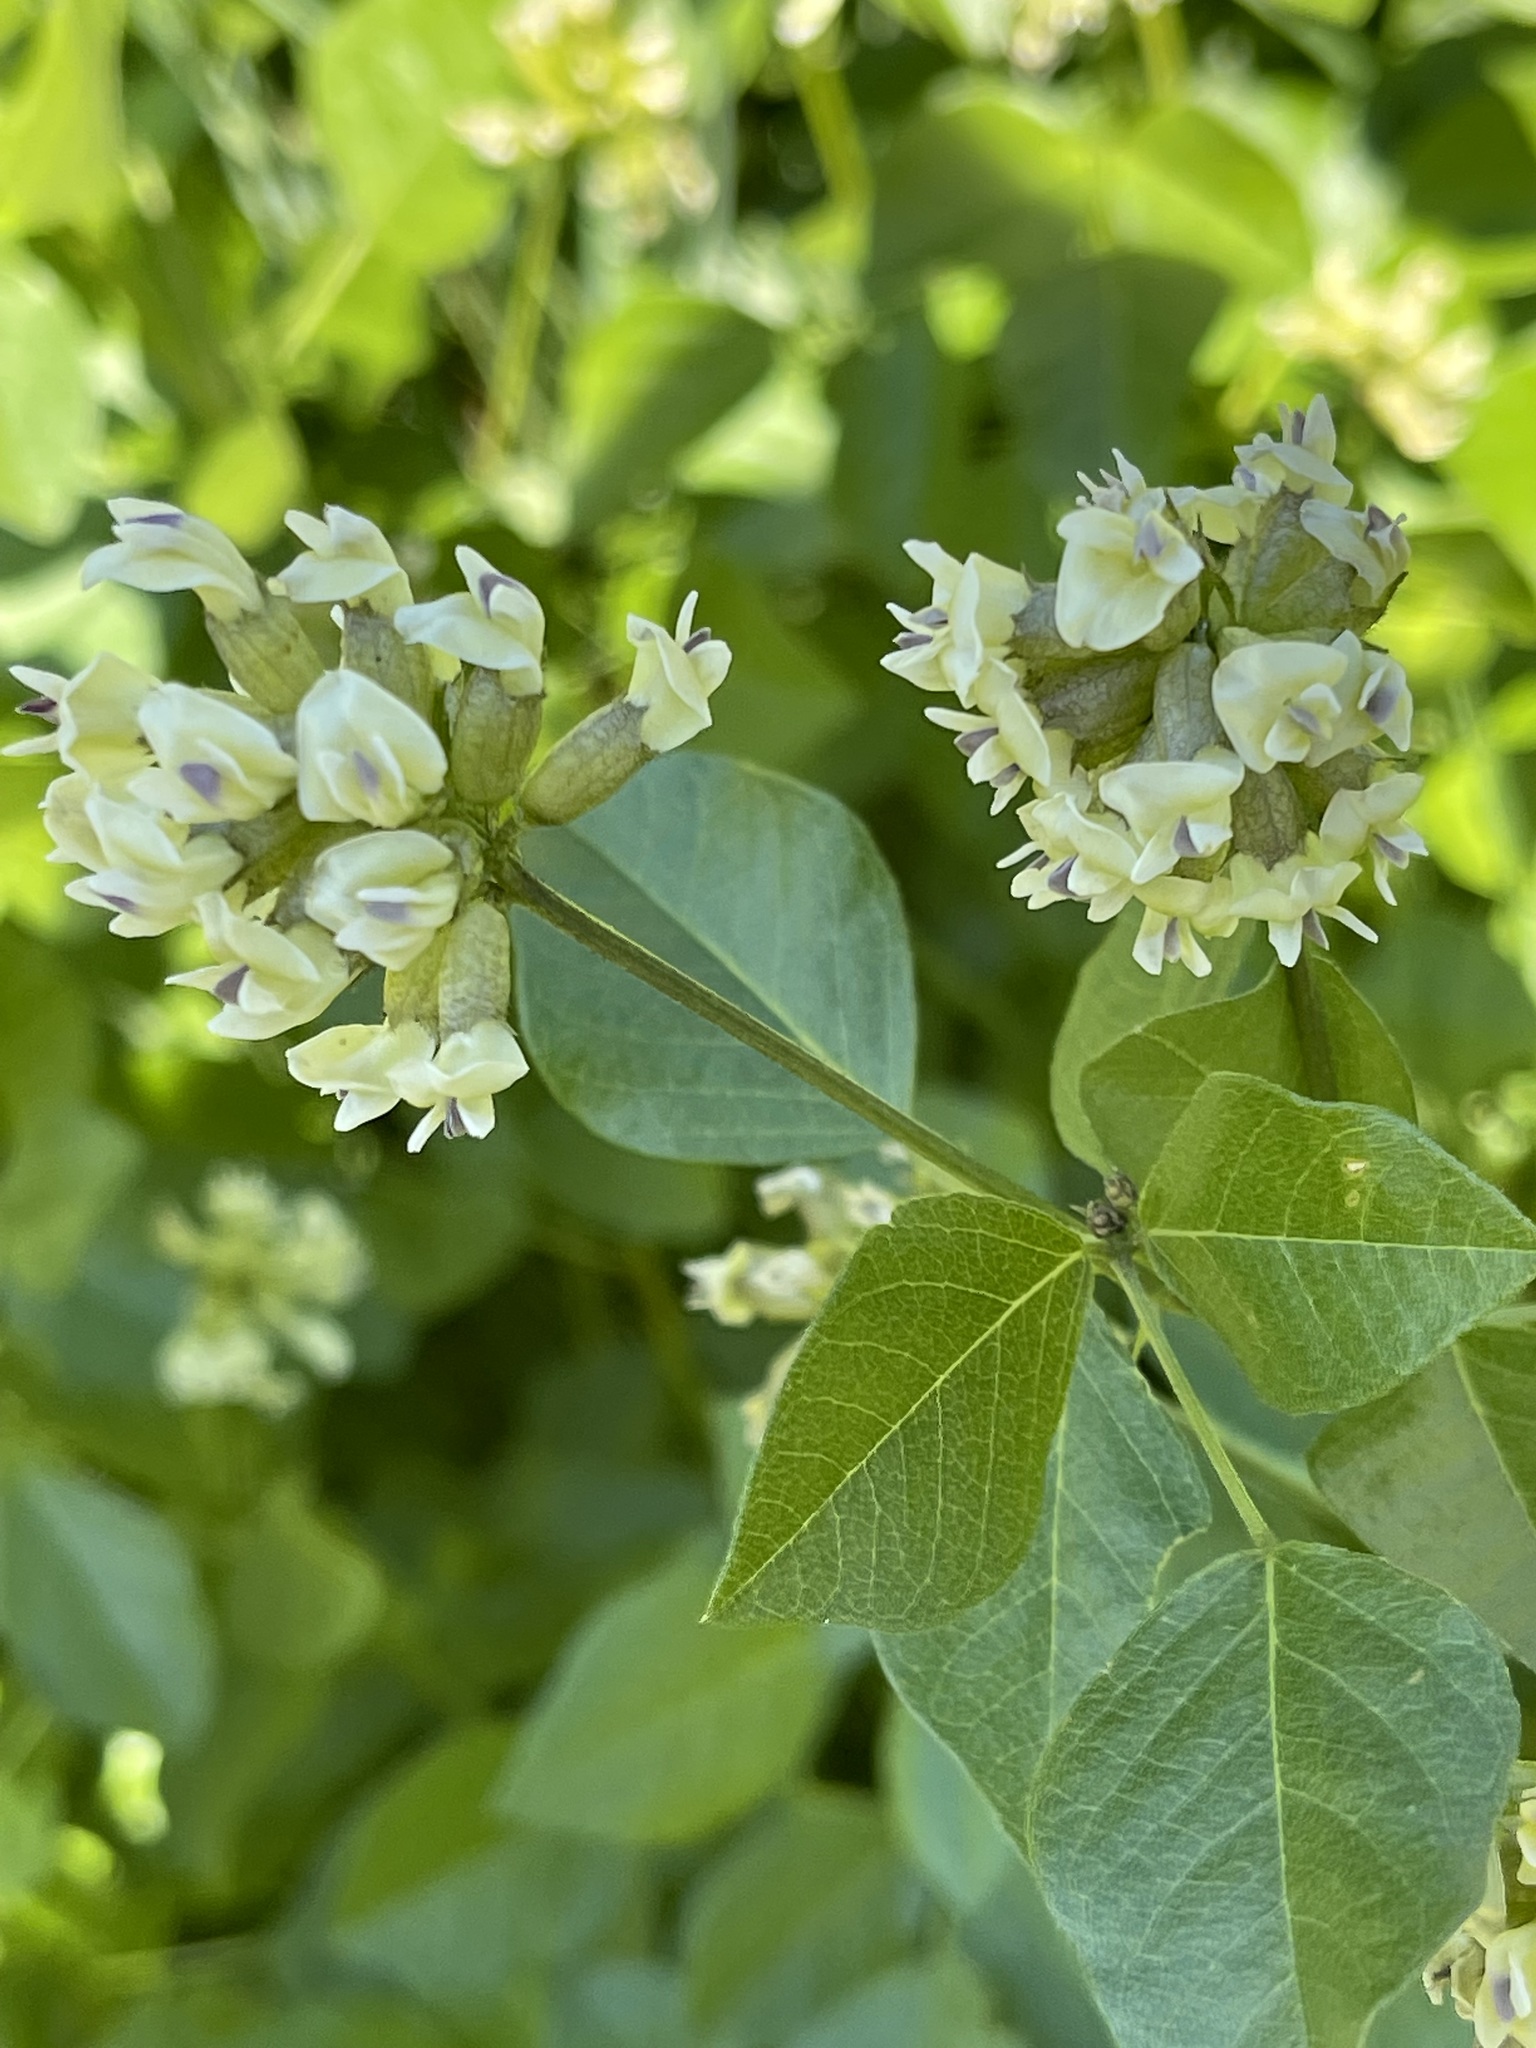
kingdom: Plantae
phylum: Tracheophyta
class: Magnoliopsida
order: Fabales
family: Fabaceae
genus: Rupertia
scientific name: Rupertia physodes
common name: California-tea
